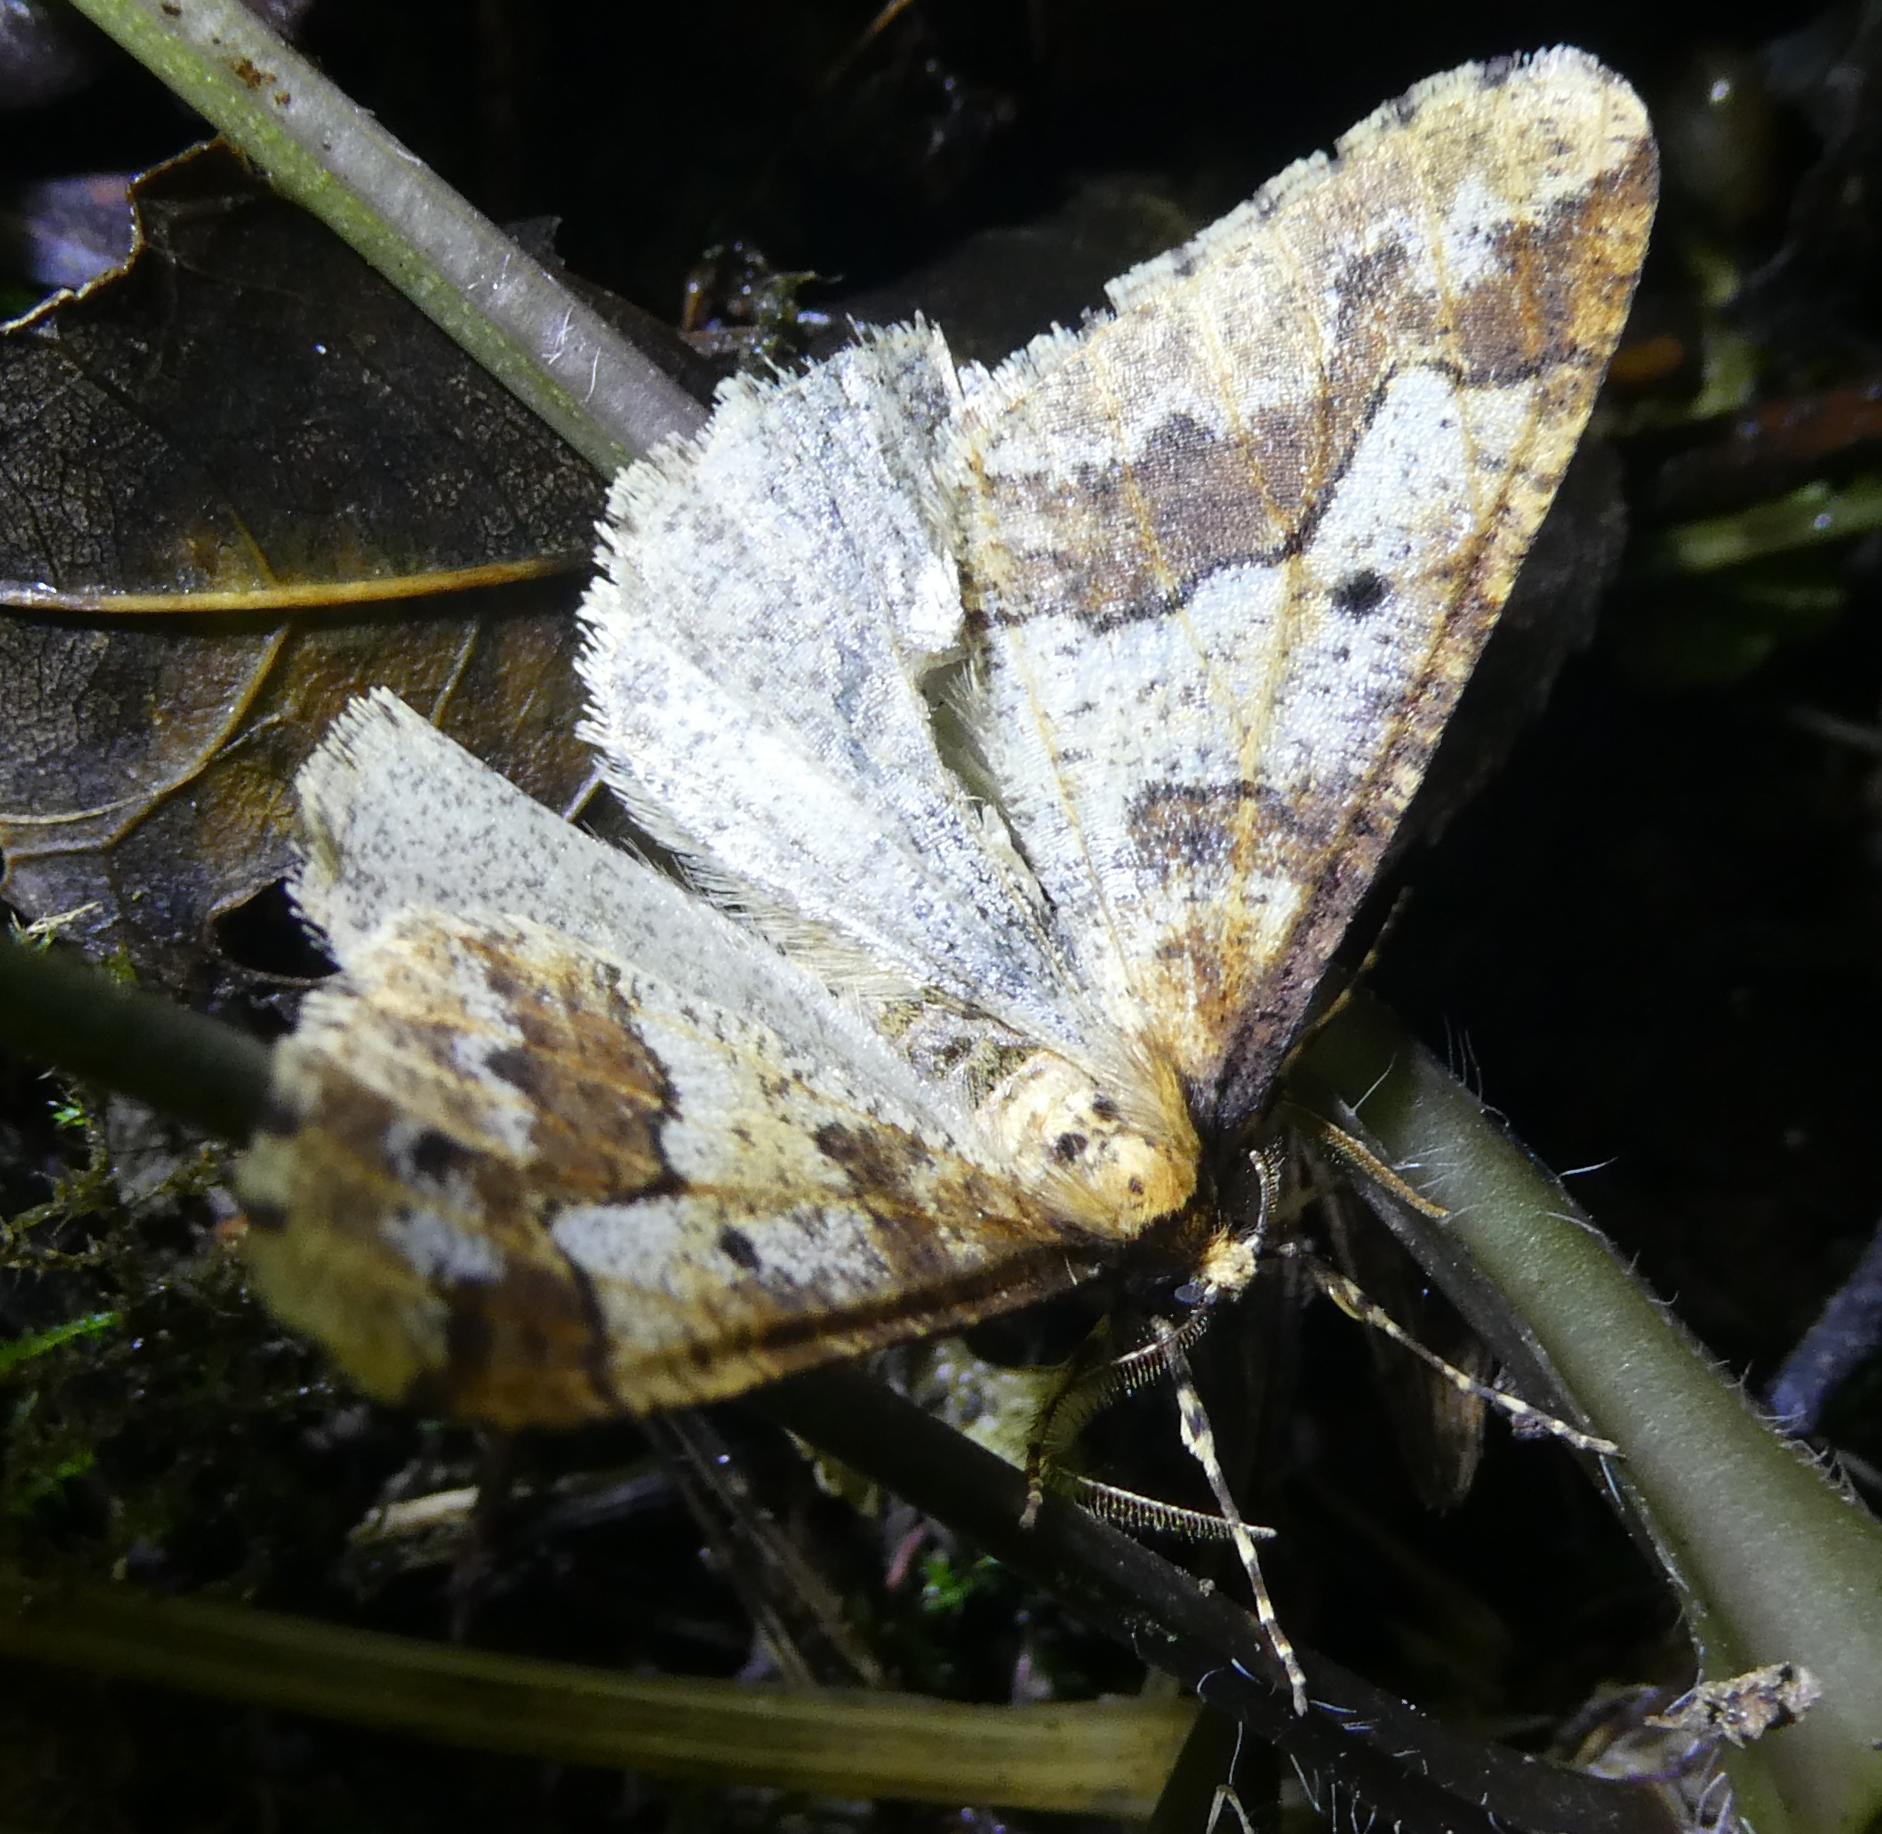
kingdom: Animalia
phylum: Arthropoda
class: Insecta
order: Lepidoptera
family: Geometridae
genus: Erannis
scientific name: Erannis defoliaria
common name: Mottled umber
